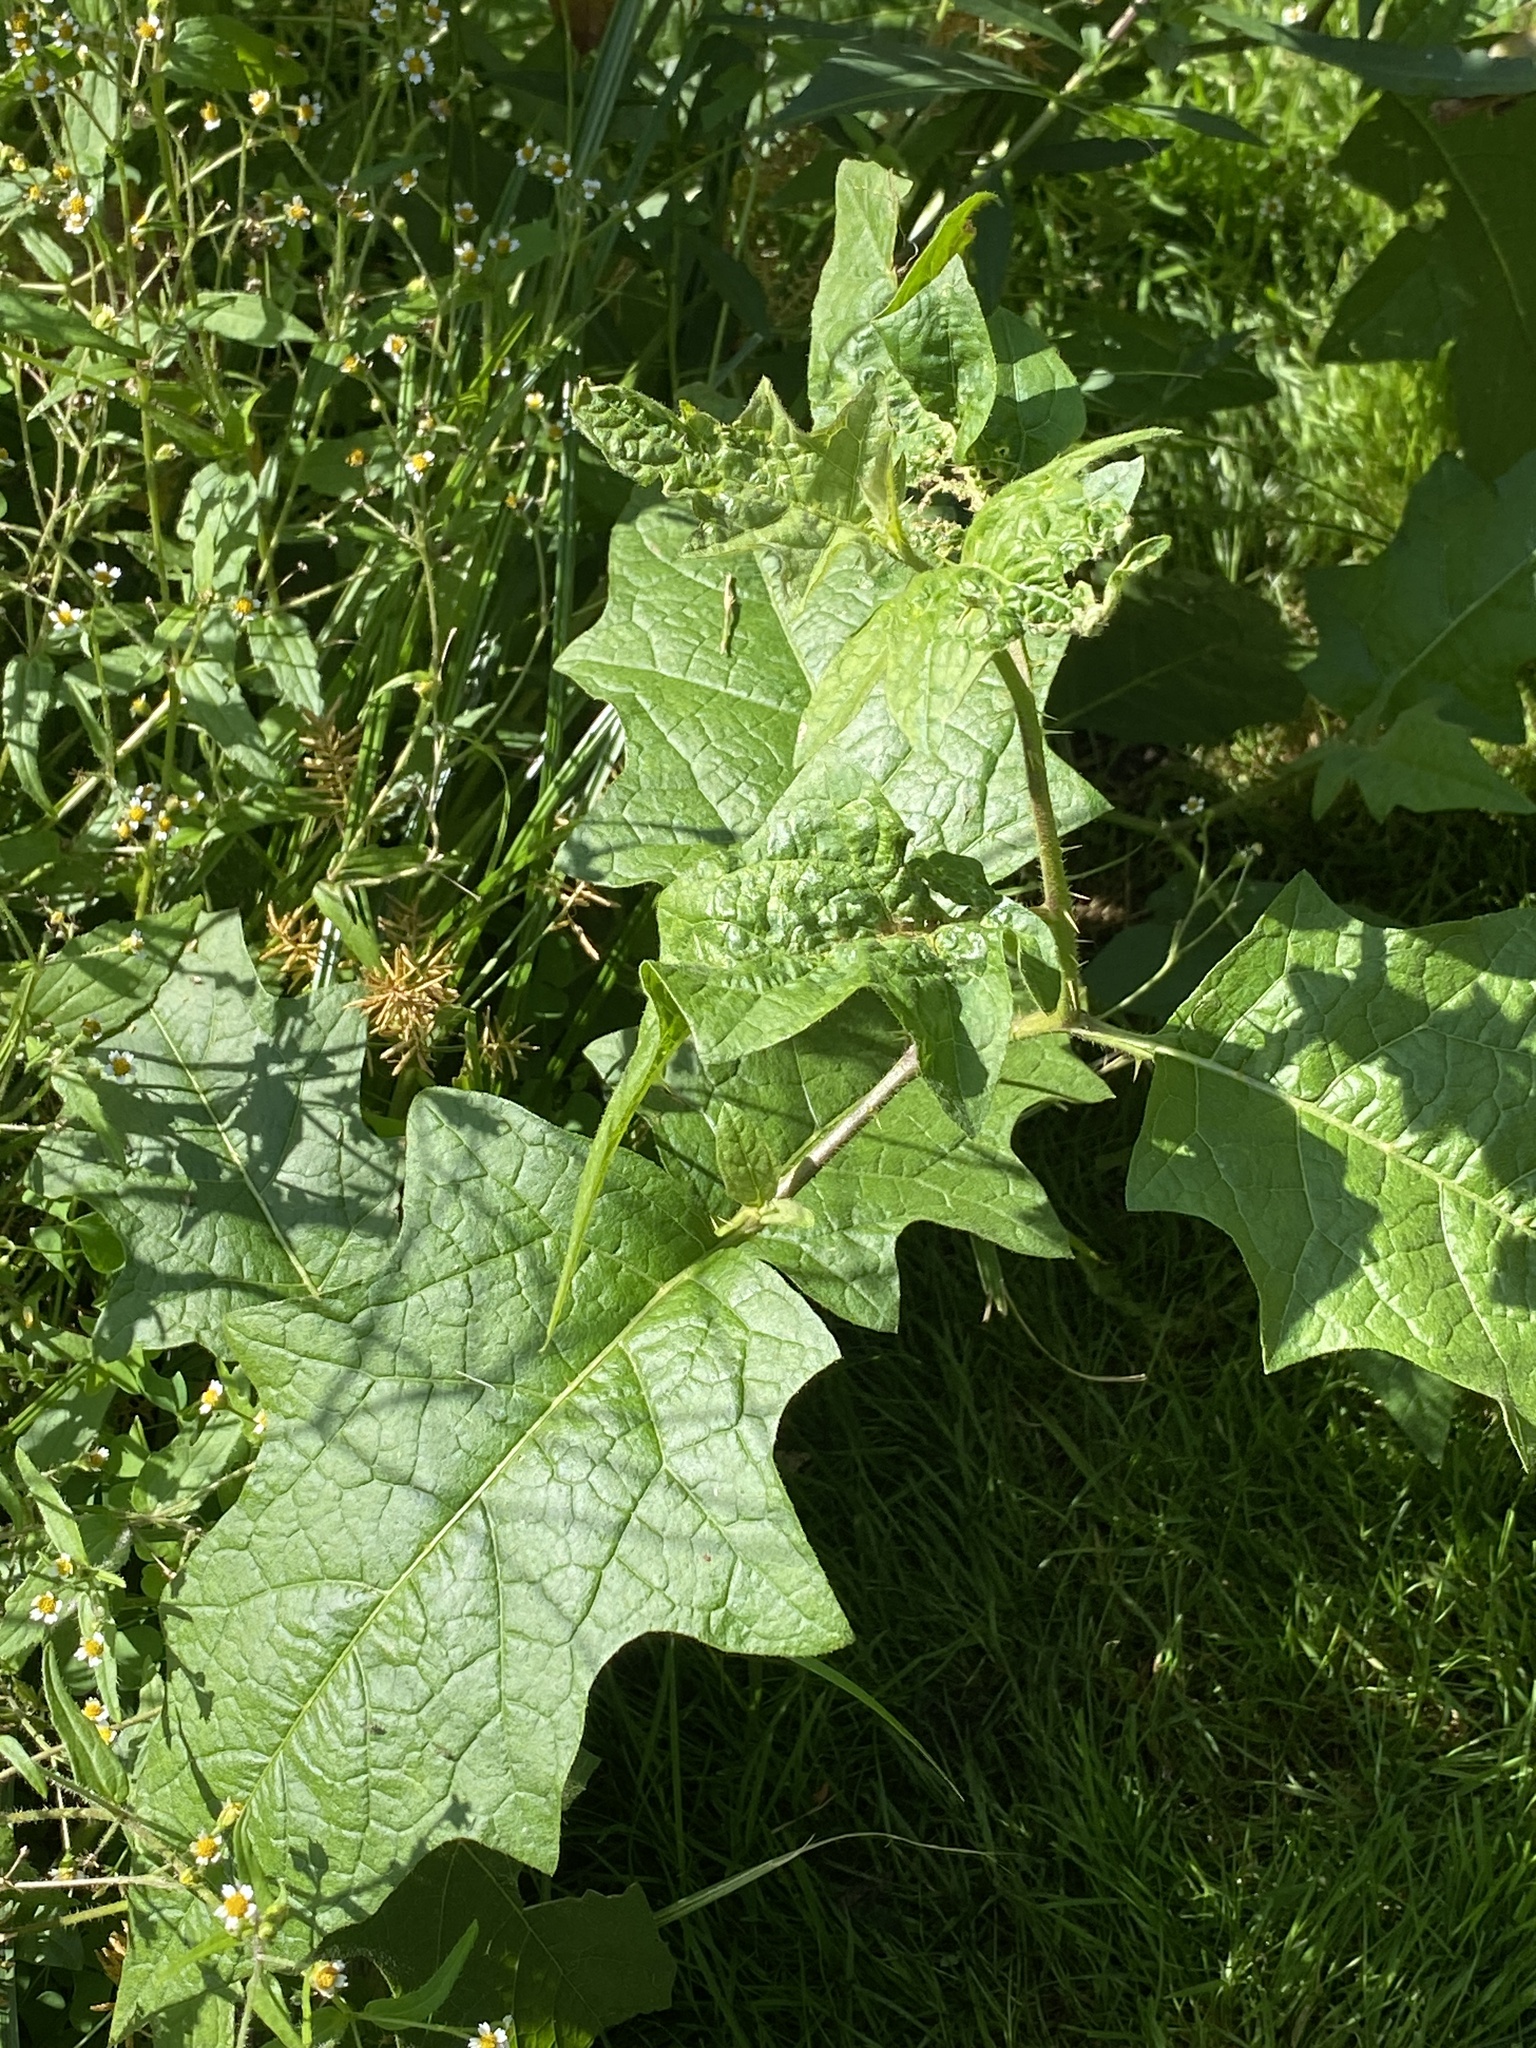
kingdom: Plantae
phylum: Tracheophyta
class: Magnoliopsida
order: Solanales
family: Solanaceae
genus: Solanum
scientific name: Solanum carolinense
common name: Horse-nettle
